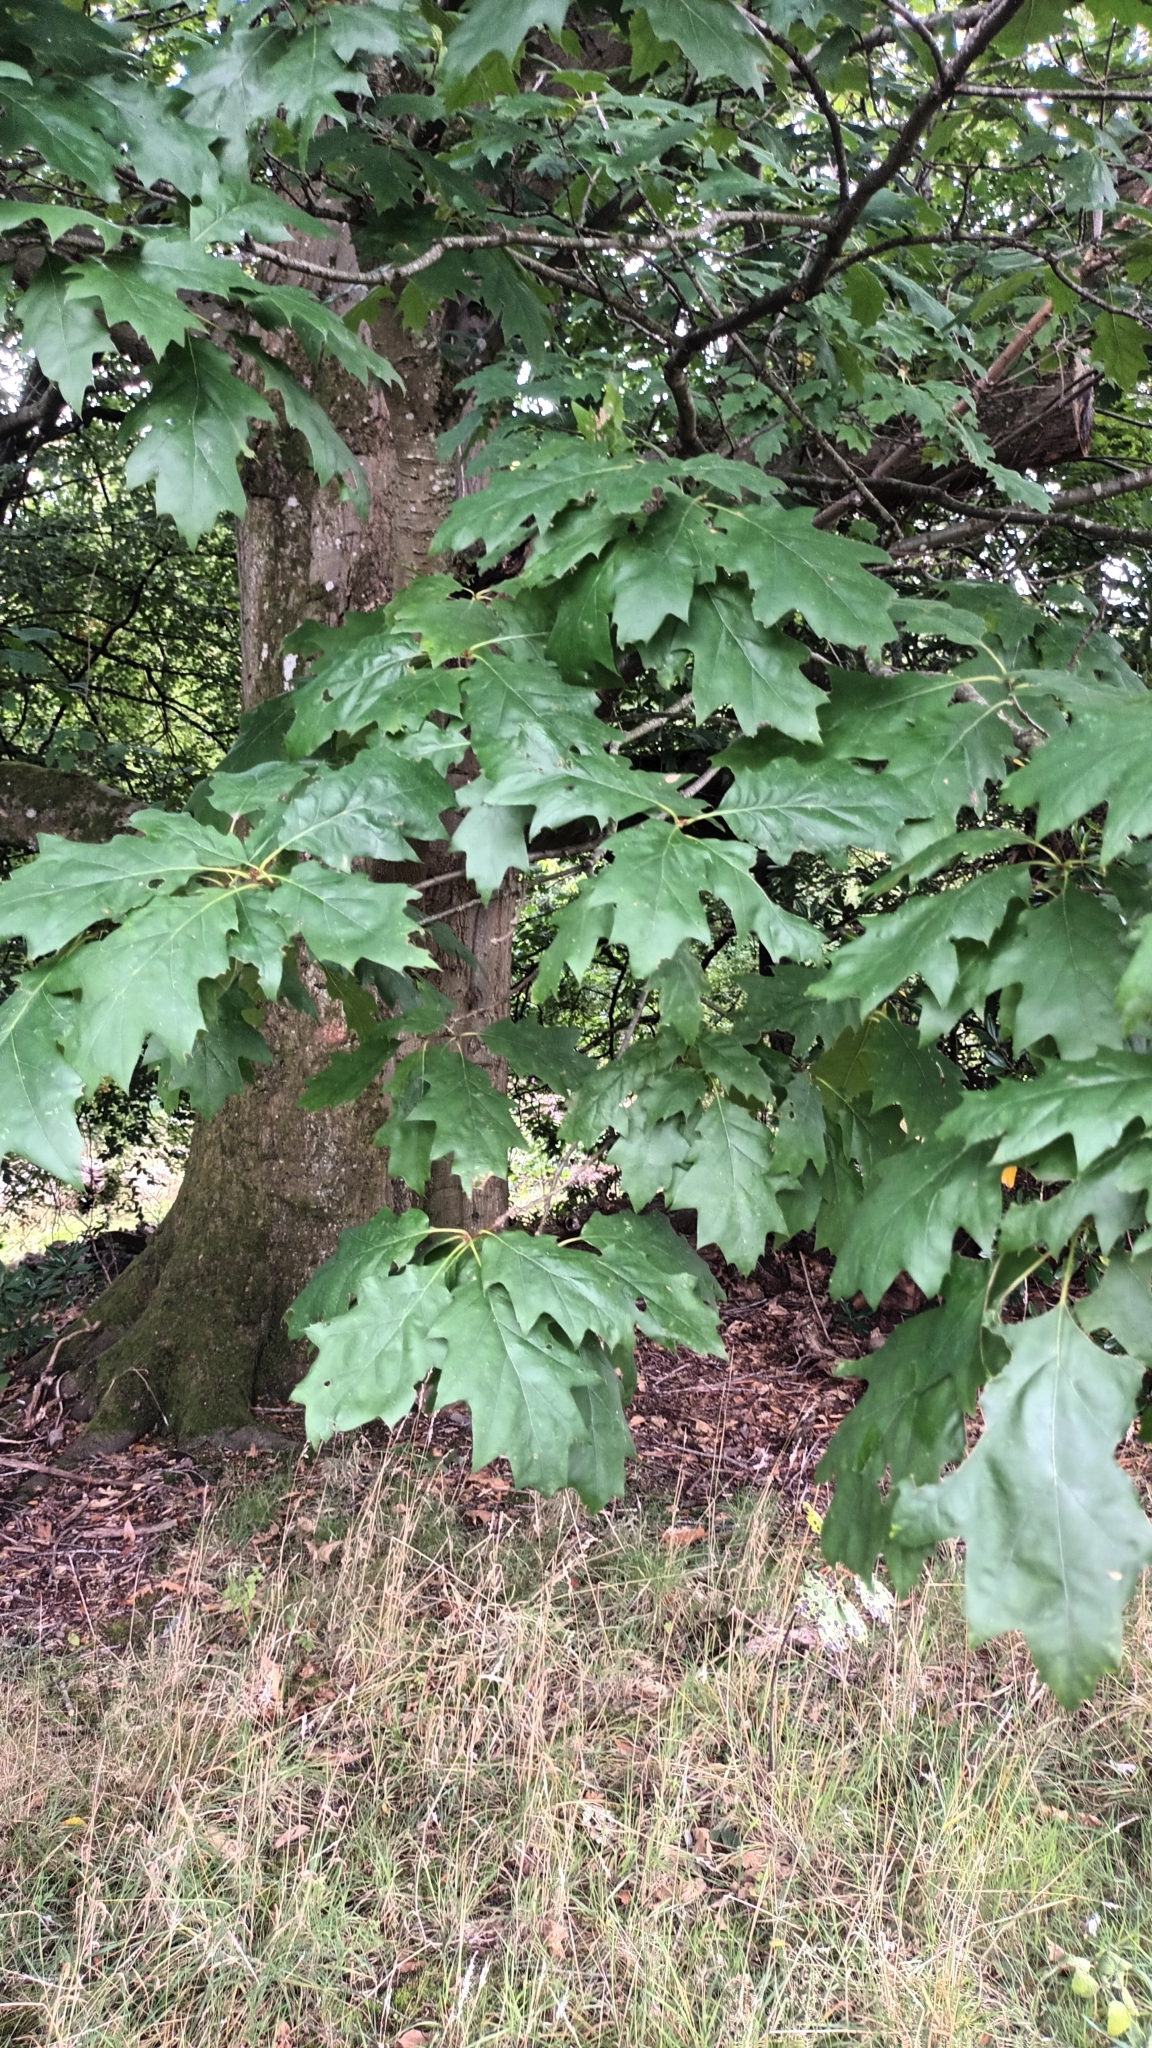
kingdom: Plantae
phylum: Tracheophyta
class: Magnoliopsida
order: Fagales
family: Fagaceae
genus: Quercus
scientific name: Quercus rubra
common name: Red oak
